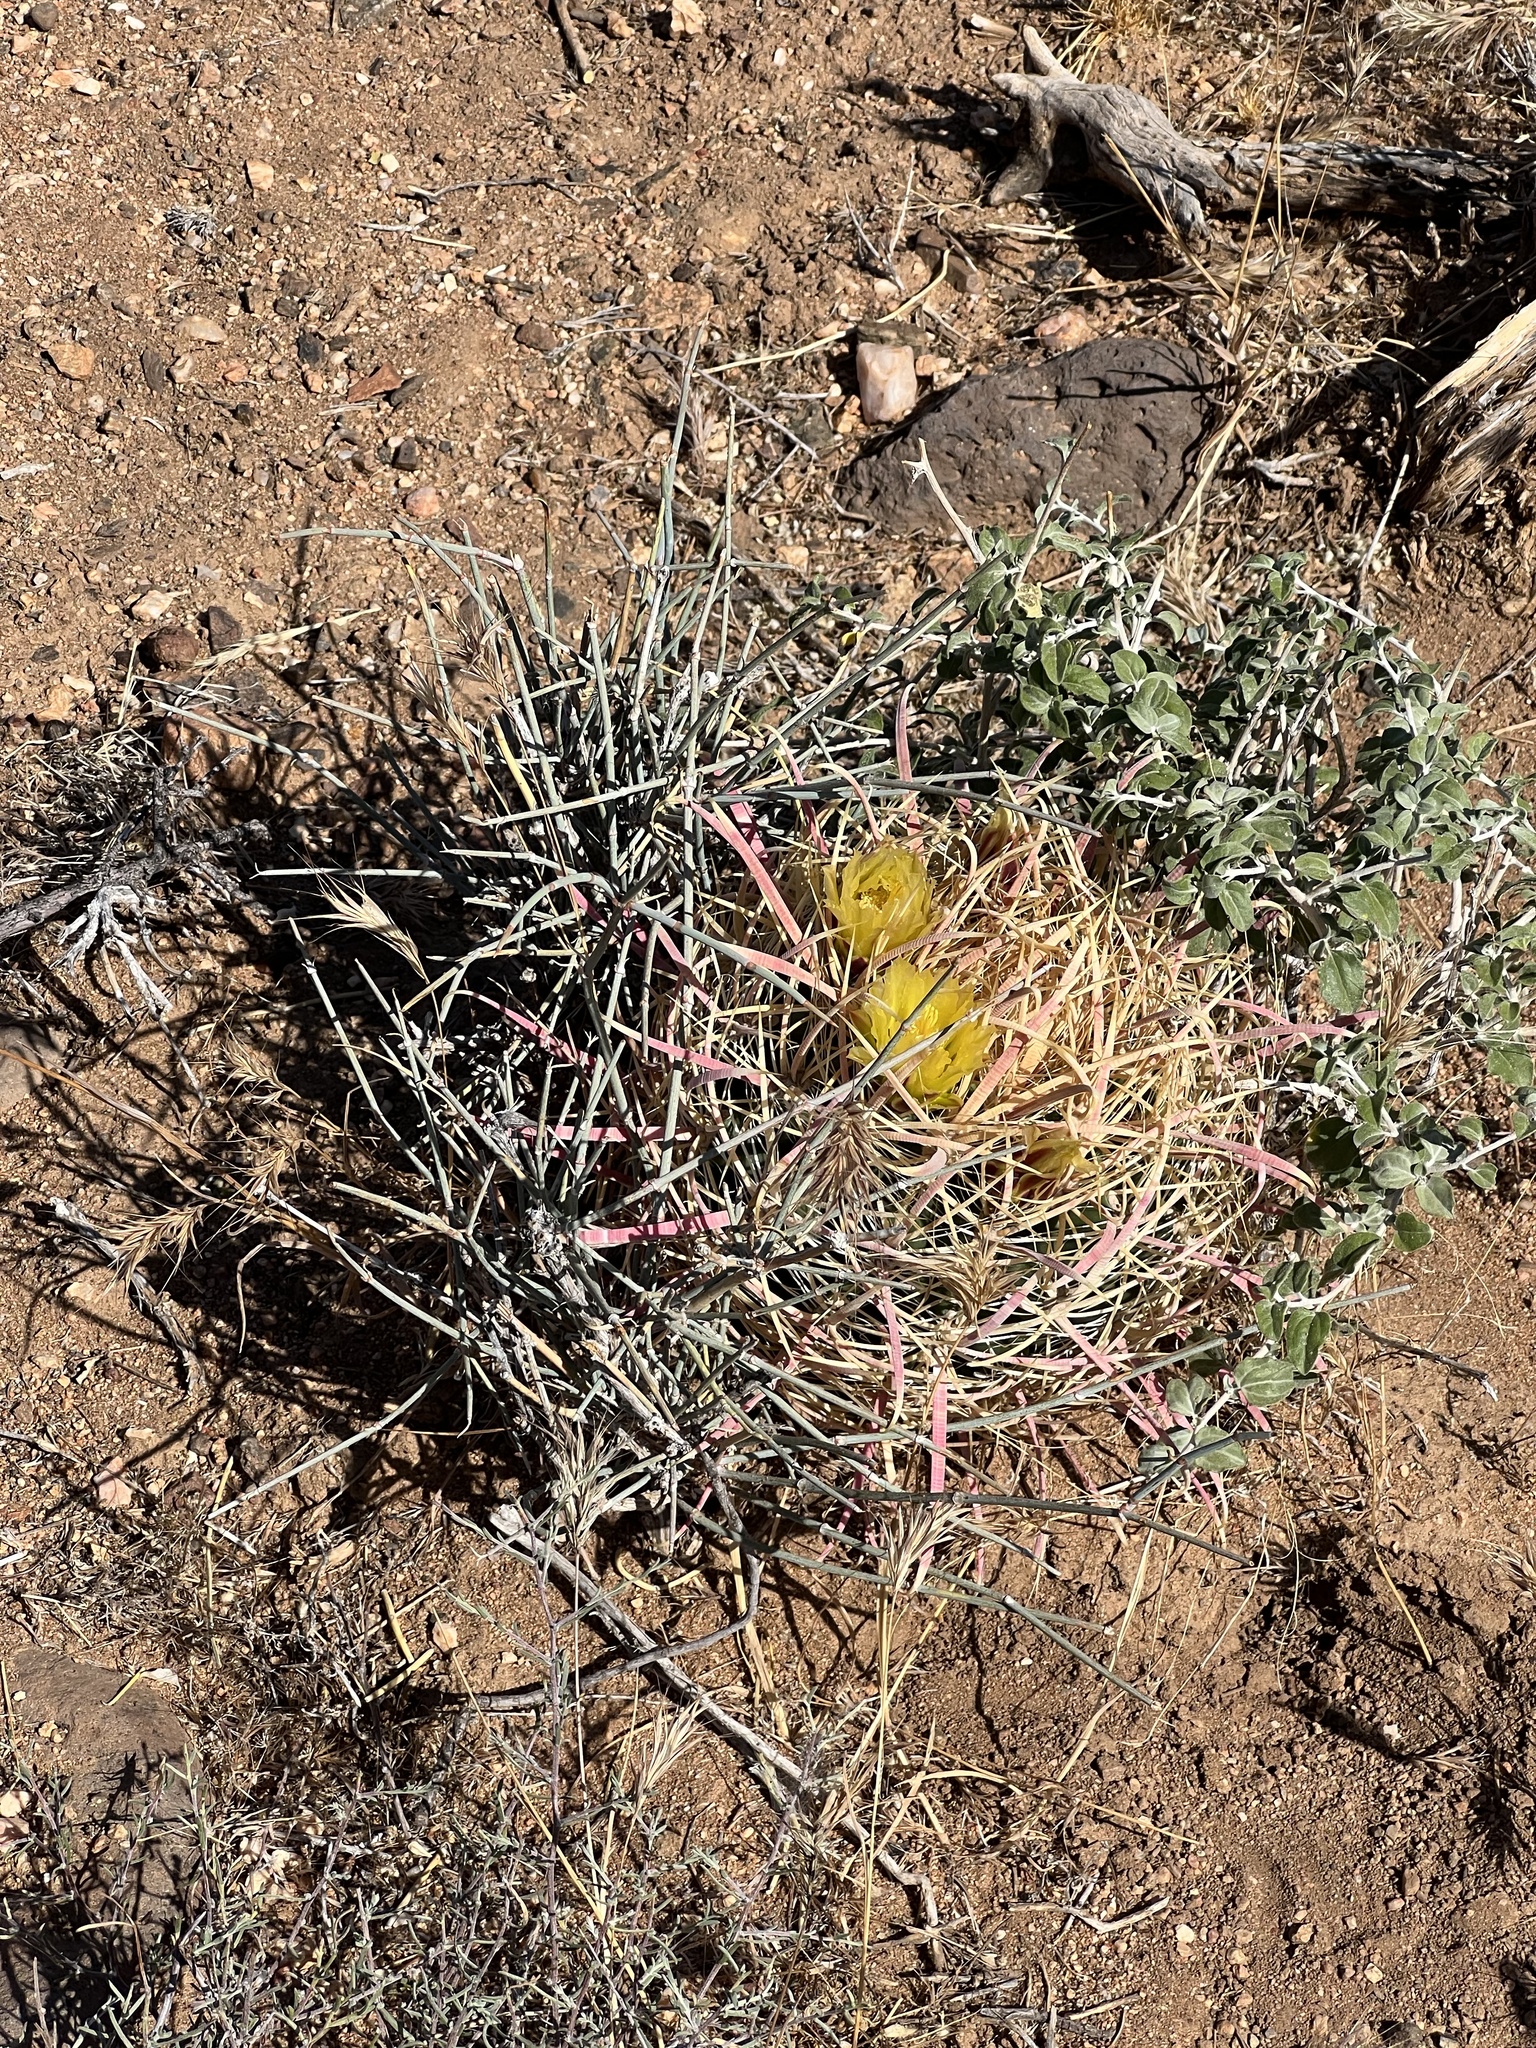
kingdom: Plantae
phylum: Tracheophyta
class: Magnoliopsida
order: Caryophyllales
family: Cactaceae
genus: Ferocactus
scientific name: Ferocactus cylindraceus
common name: California barrel cactus
